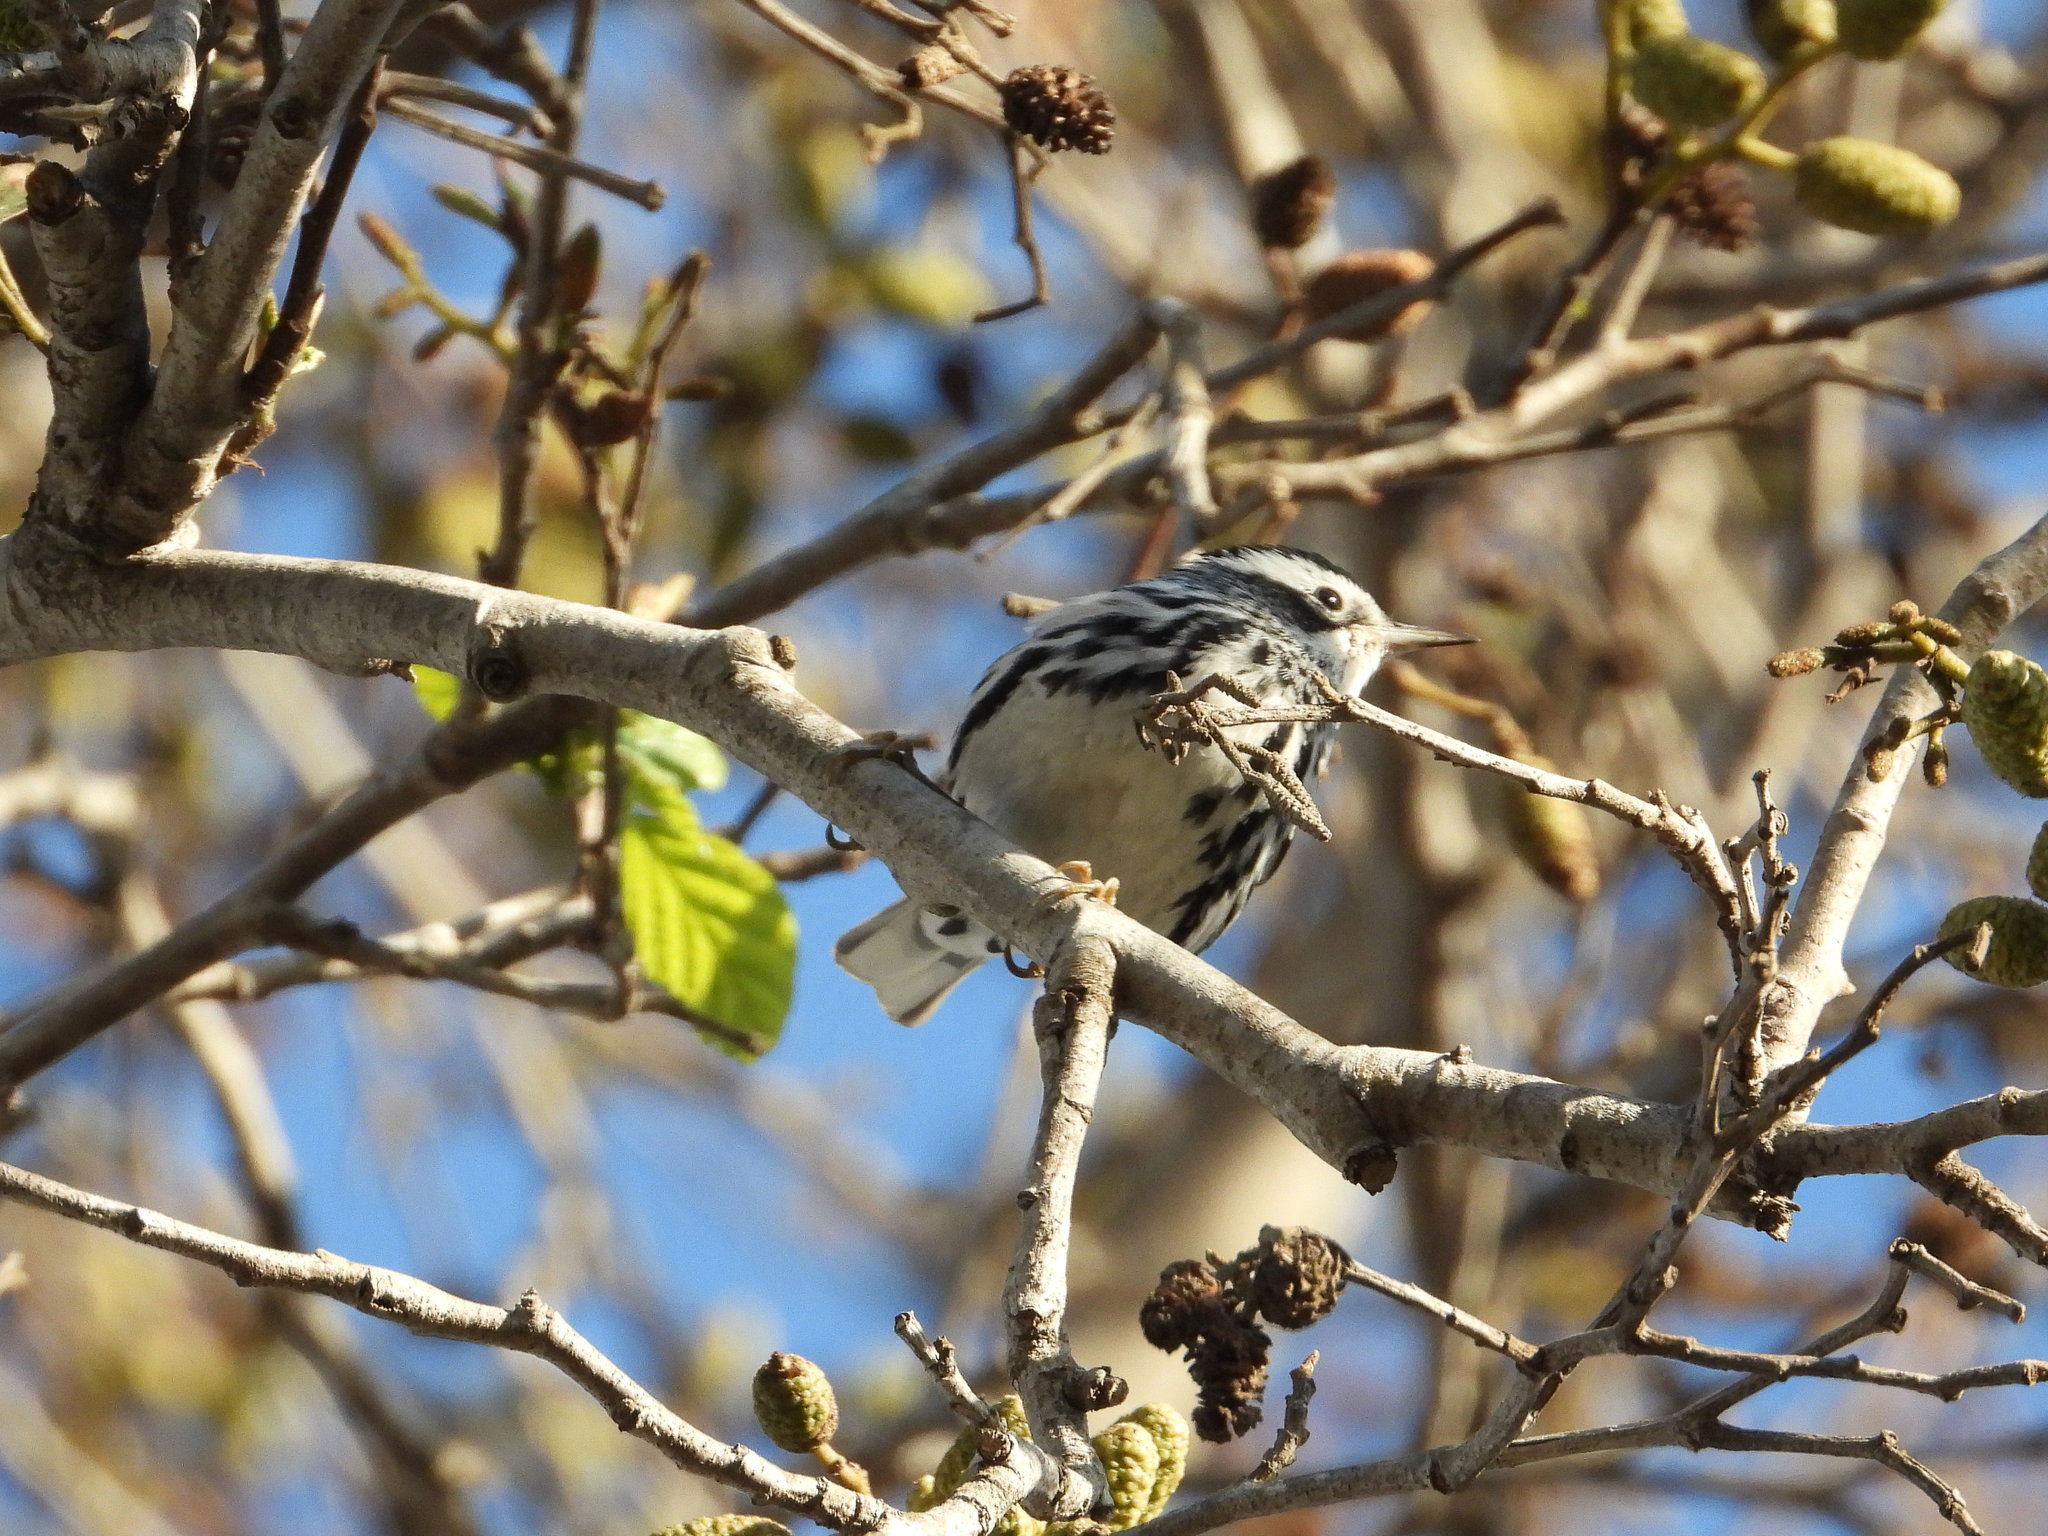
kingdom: Animalia
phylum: Chordata
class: Aves
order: Passeriformes
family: Parulidae
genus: Mniotilta
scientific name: Mniotilta varia
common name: Black-and-white warbler
